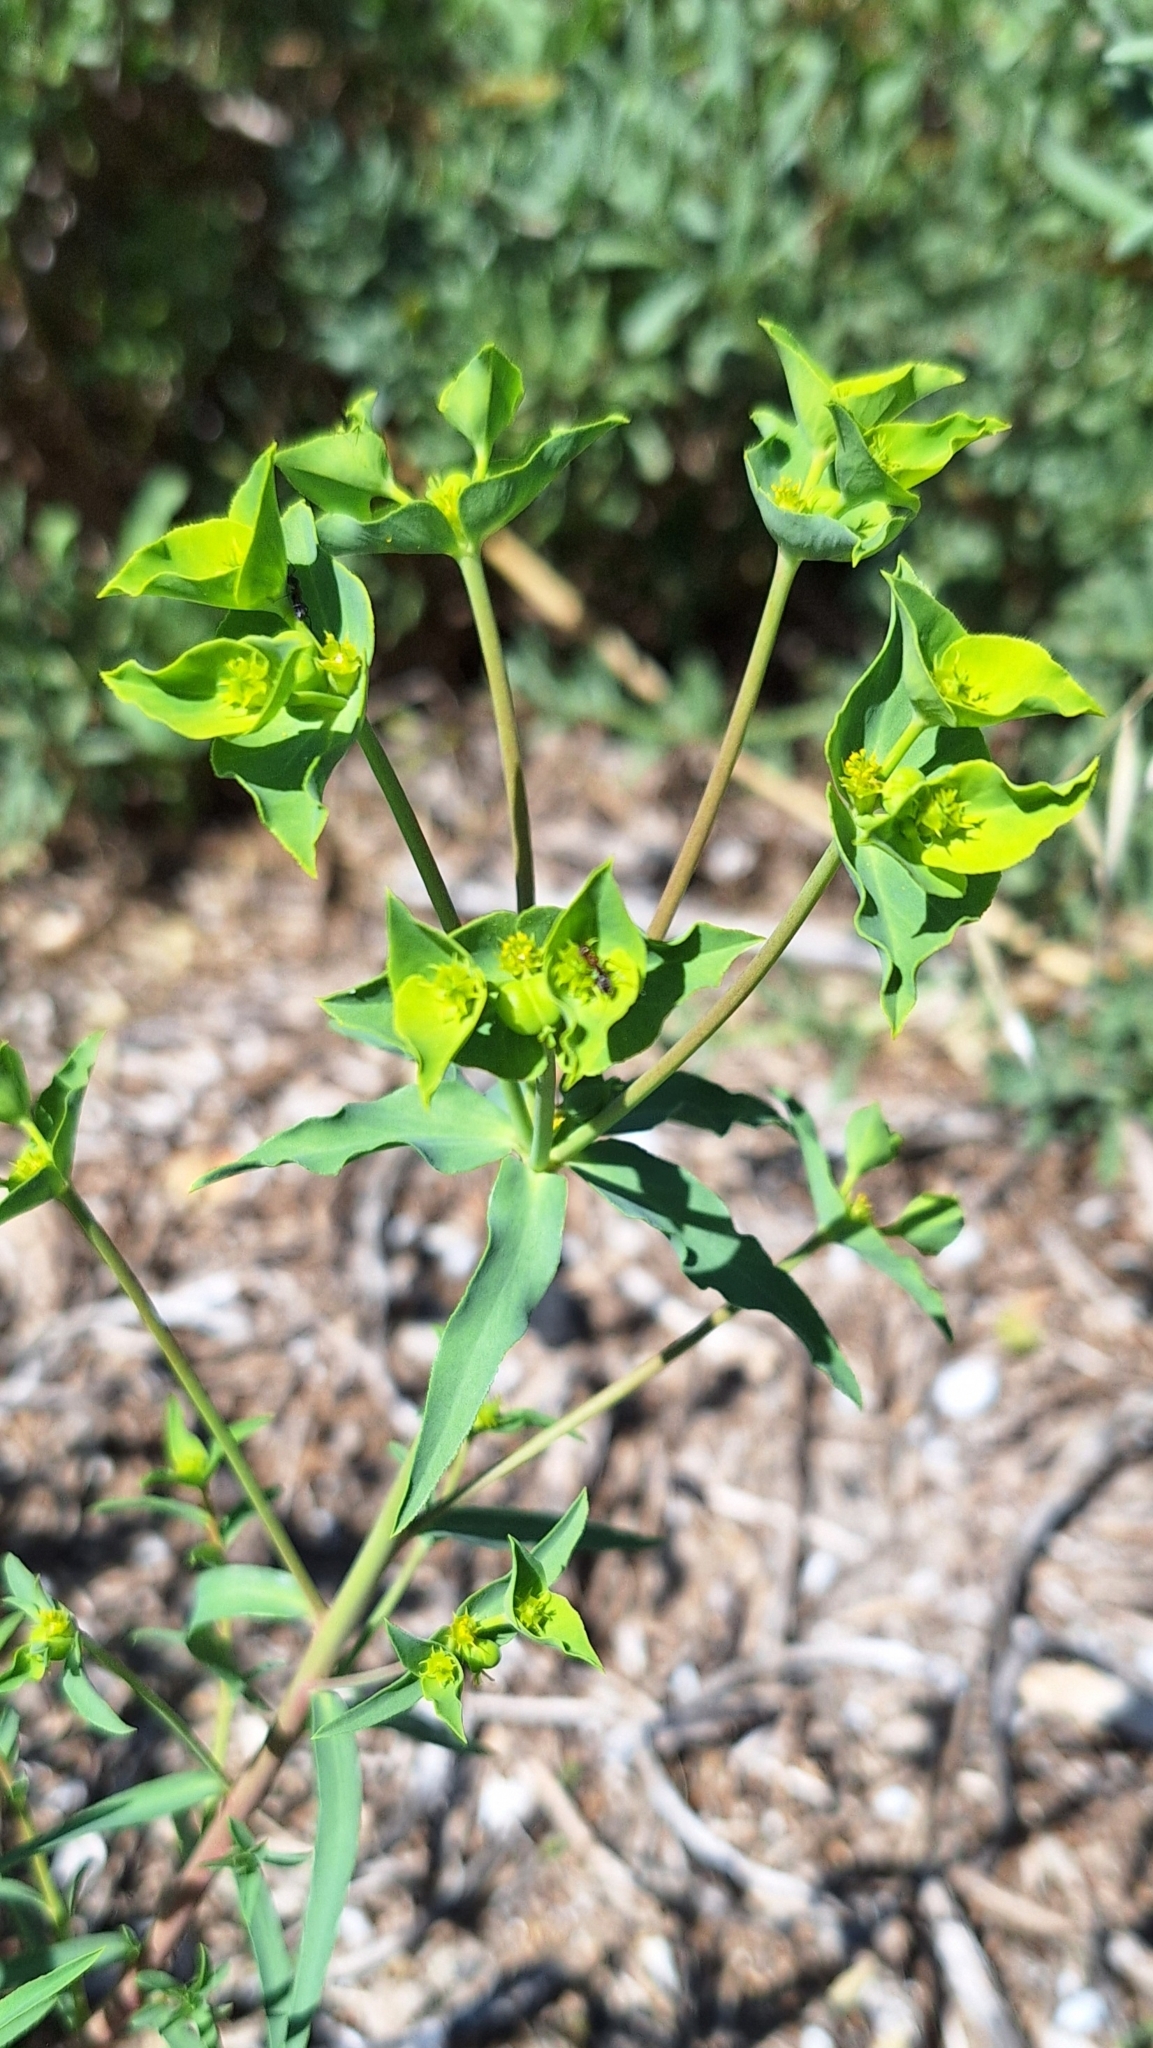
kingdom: Plantae
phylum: Tracheophyta
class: Magnoliopsida
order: Malpighiales
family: Euphorbiaceae
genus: Euphorbia
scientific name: Euphorbia terracina
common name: Geraldton carnation weed
